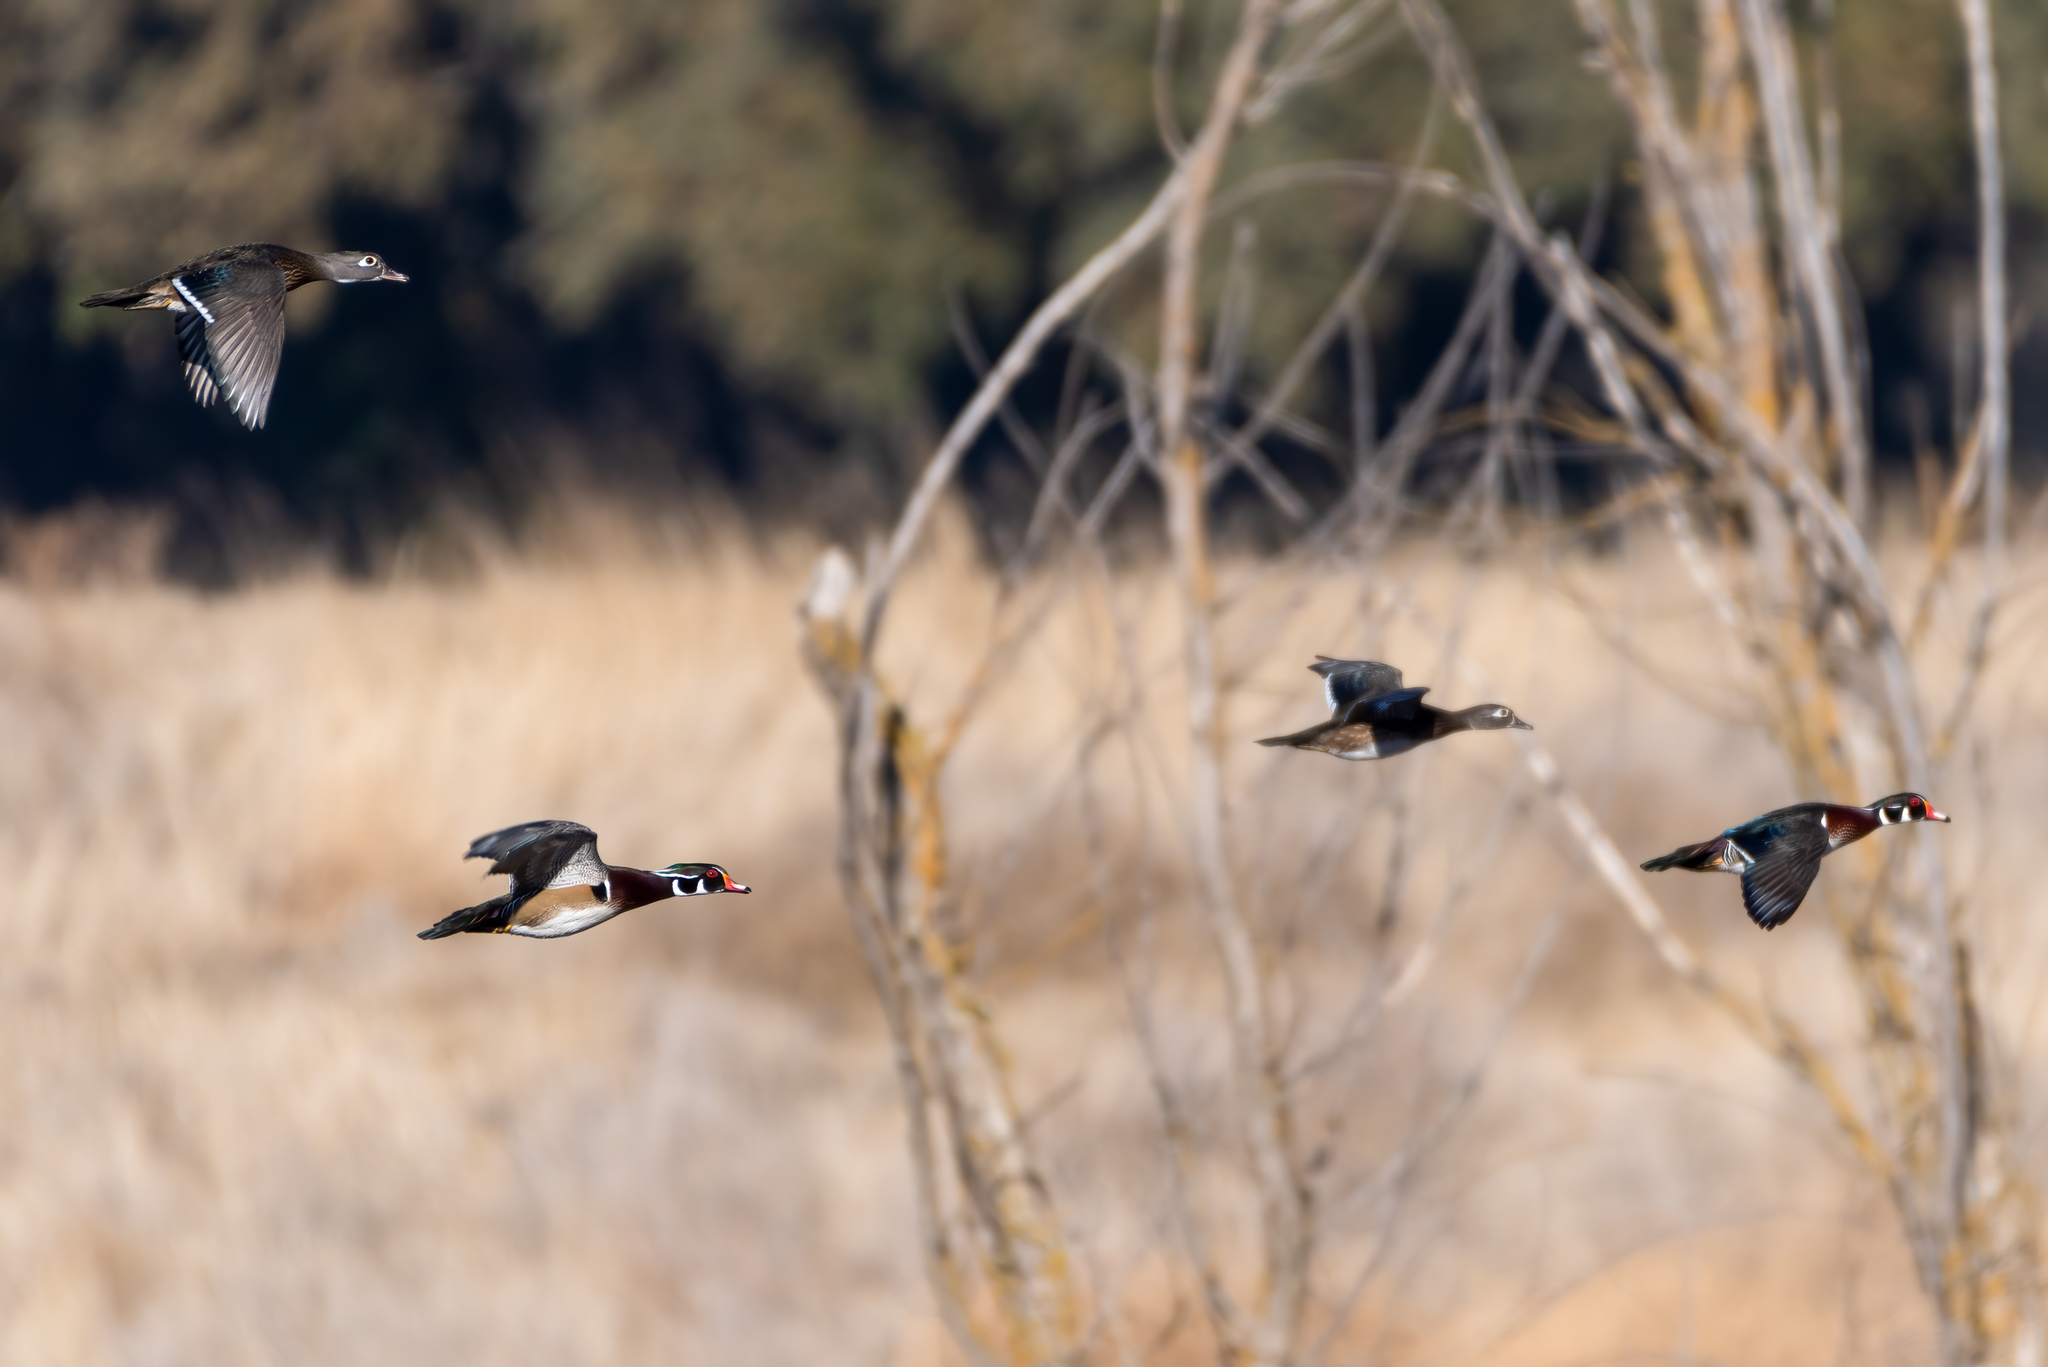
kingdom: Animalia
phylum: Chordata
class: Aves
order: Anseriformes
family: Anatidae
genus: Aix
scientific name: Aix sponsa
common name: Wood duck
